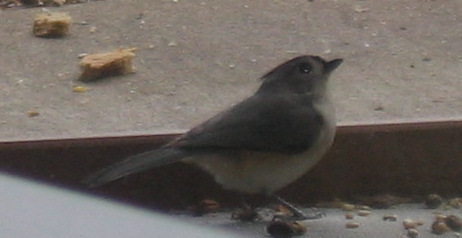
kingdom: Animalia
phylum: Chordata
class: Aves
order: Passeriformes
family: Paridae
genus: Baeolophus
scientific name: Baeolophus bicolor
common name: Tufted titmouse
